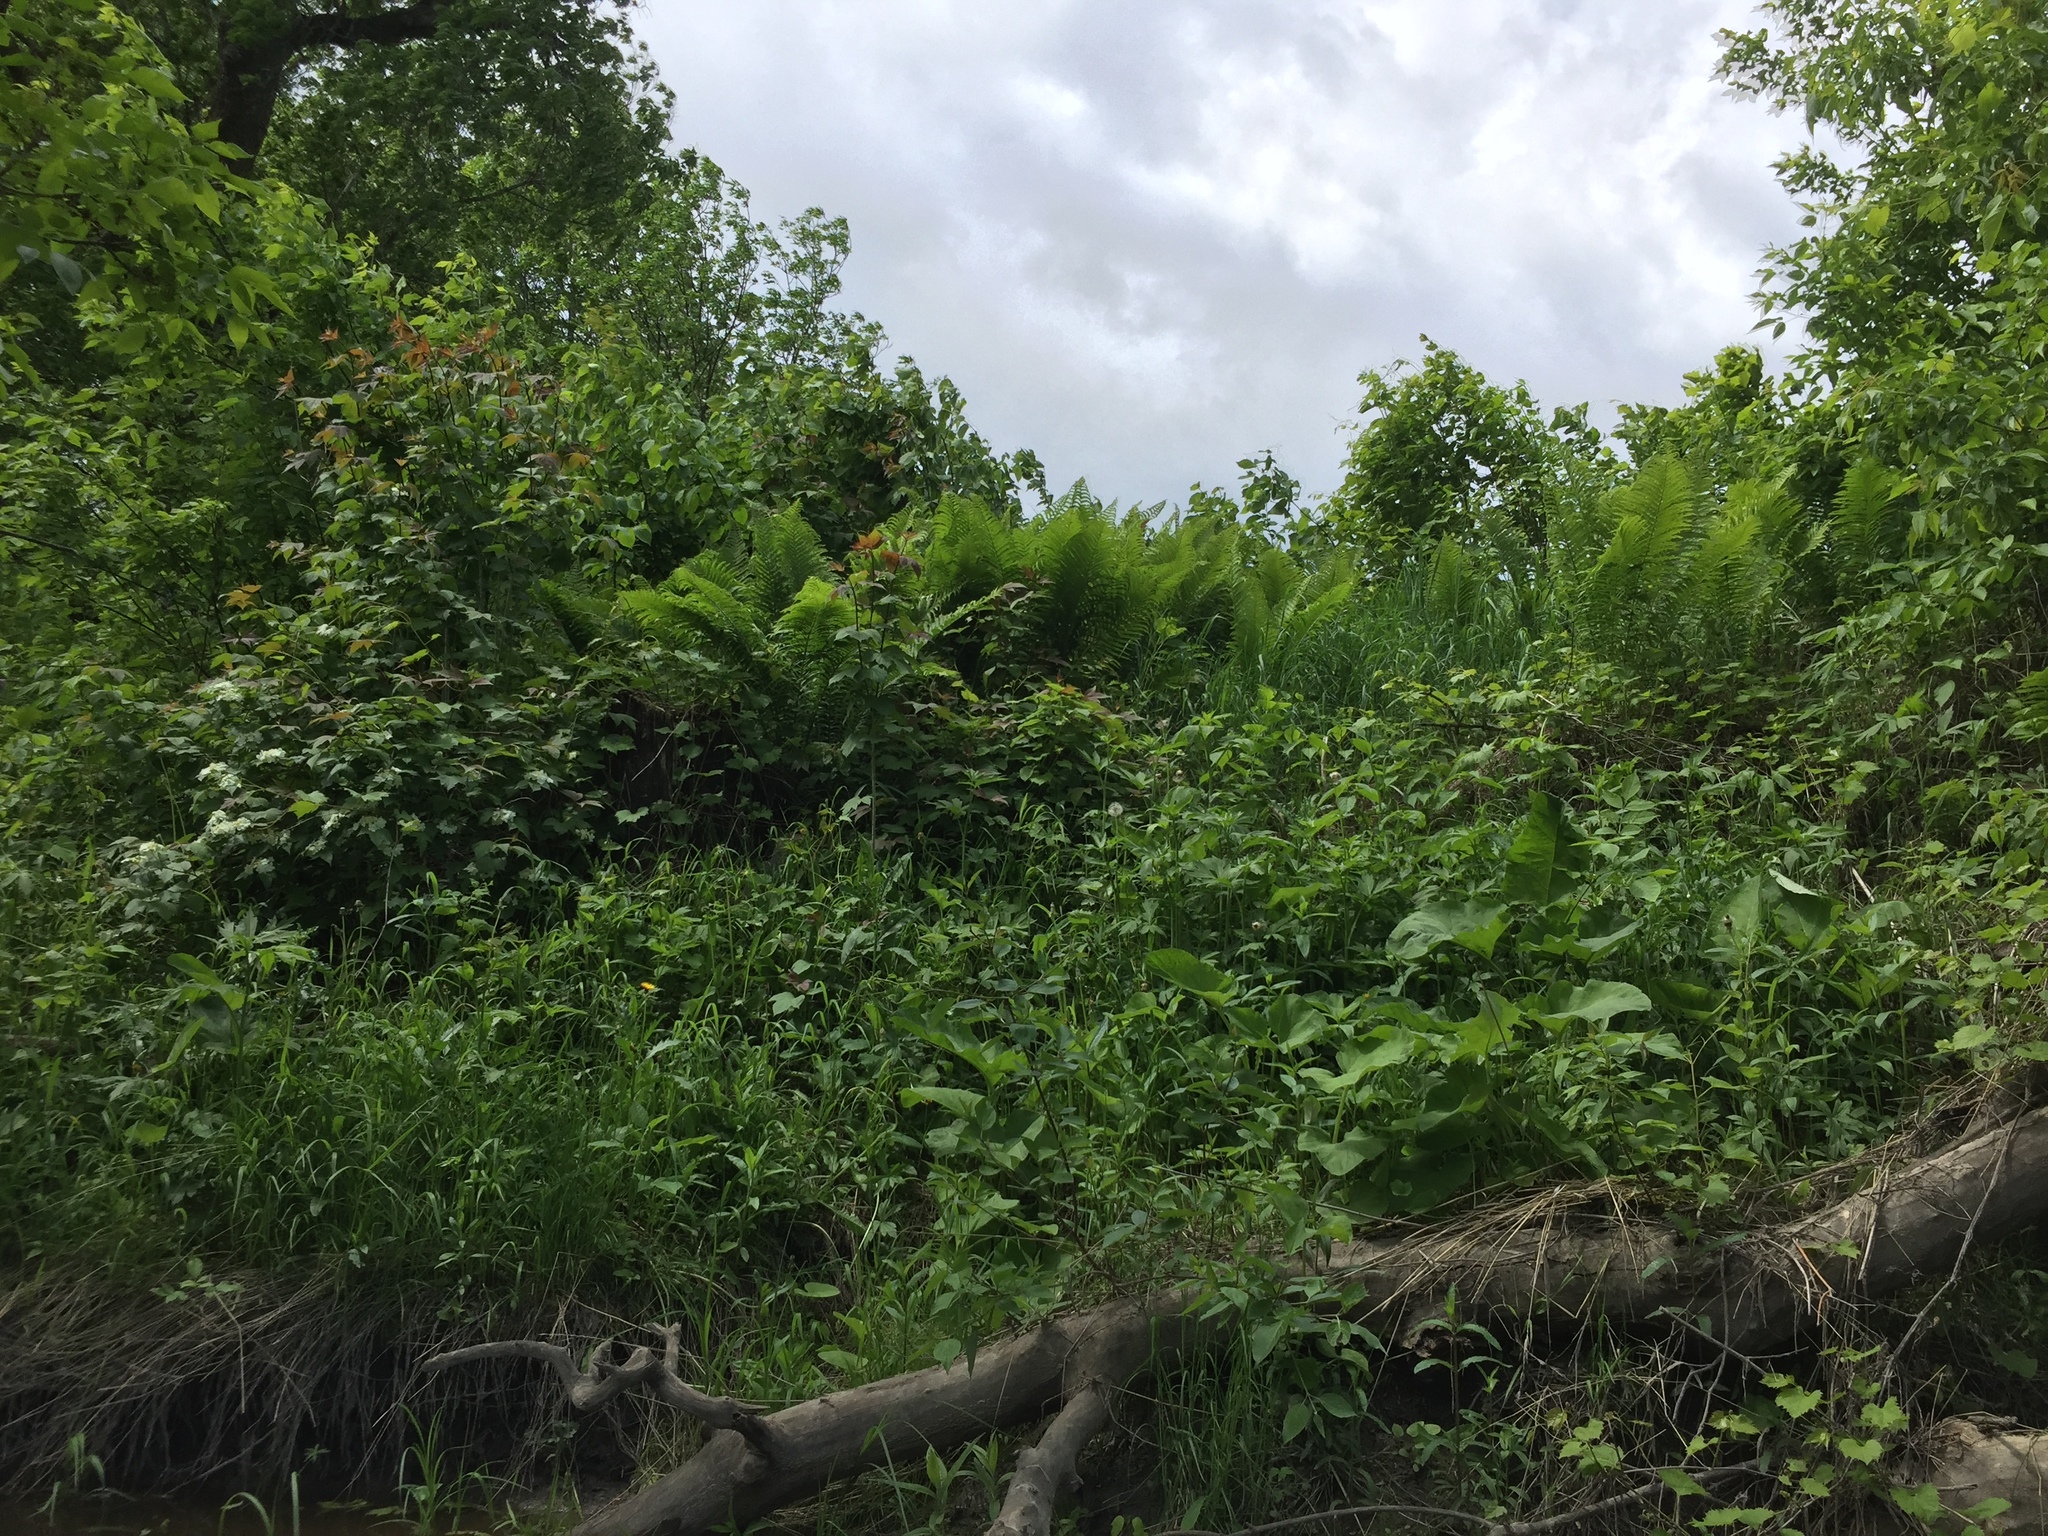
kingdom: Plantae
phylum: Tracheophyta
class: Polypodiopsida
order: Polypodiales
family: Onocleaceae
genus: Matteuccia
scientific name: Matteuccia struthiopteris
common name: Ostrich fern
